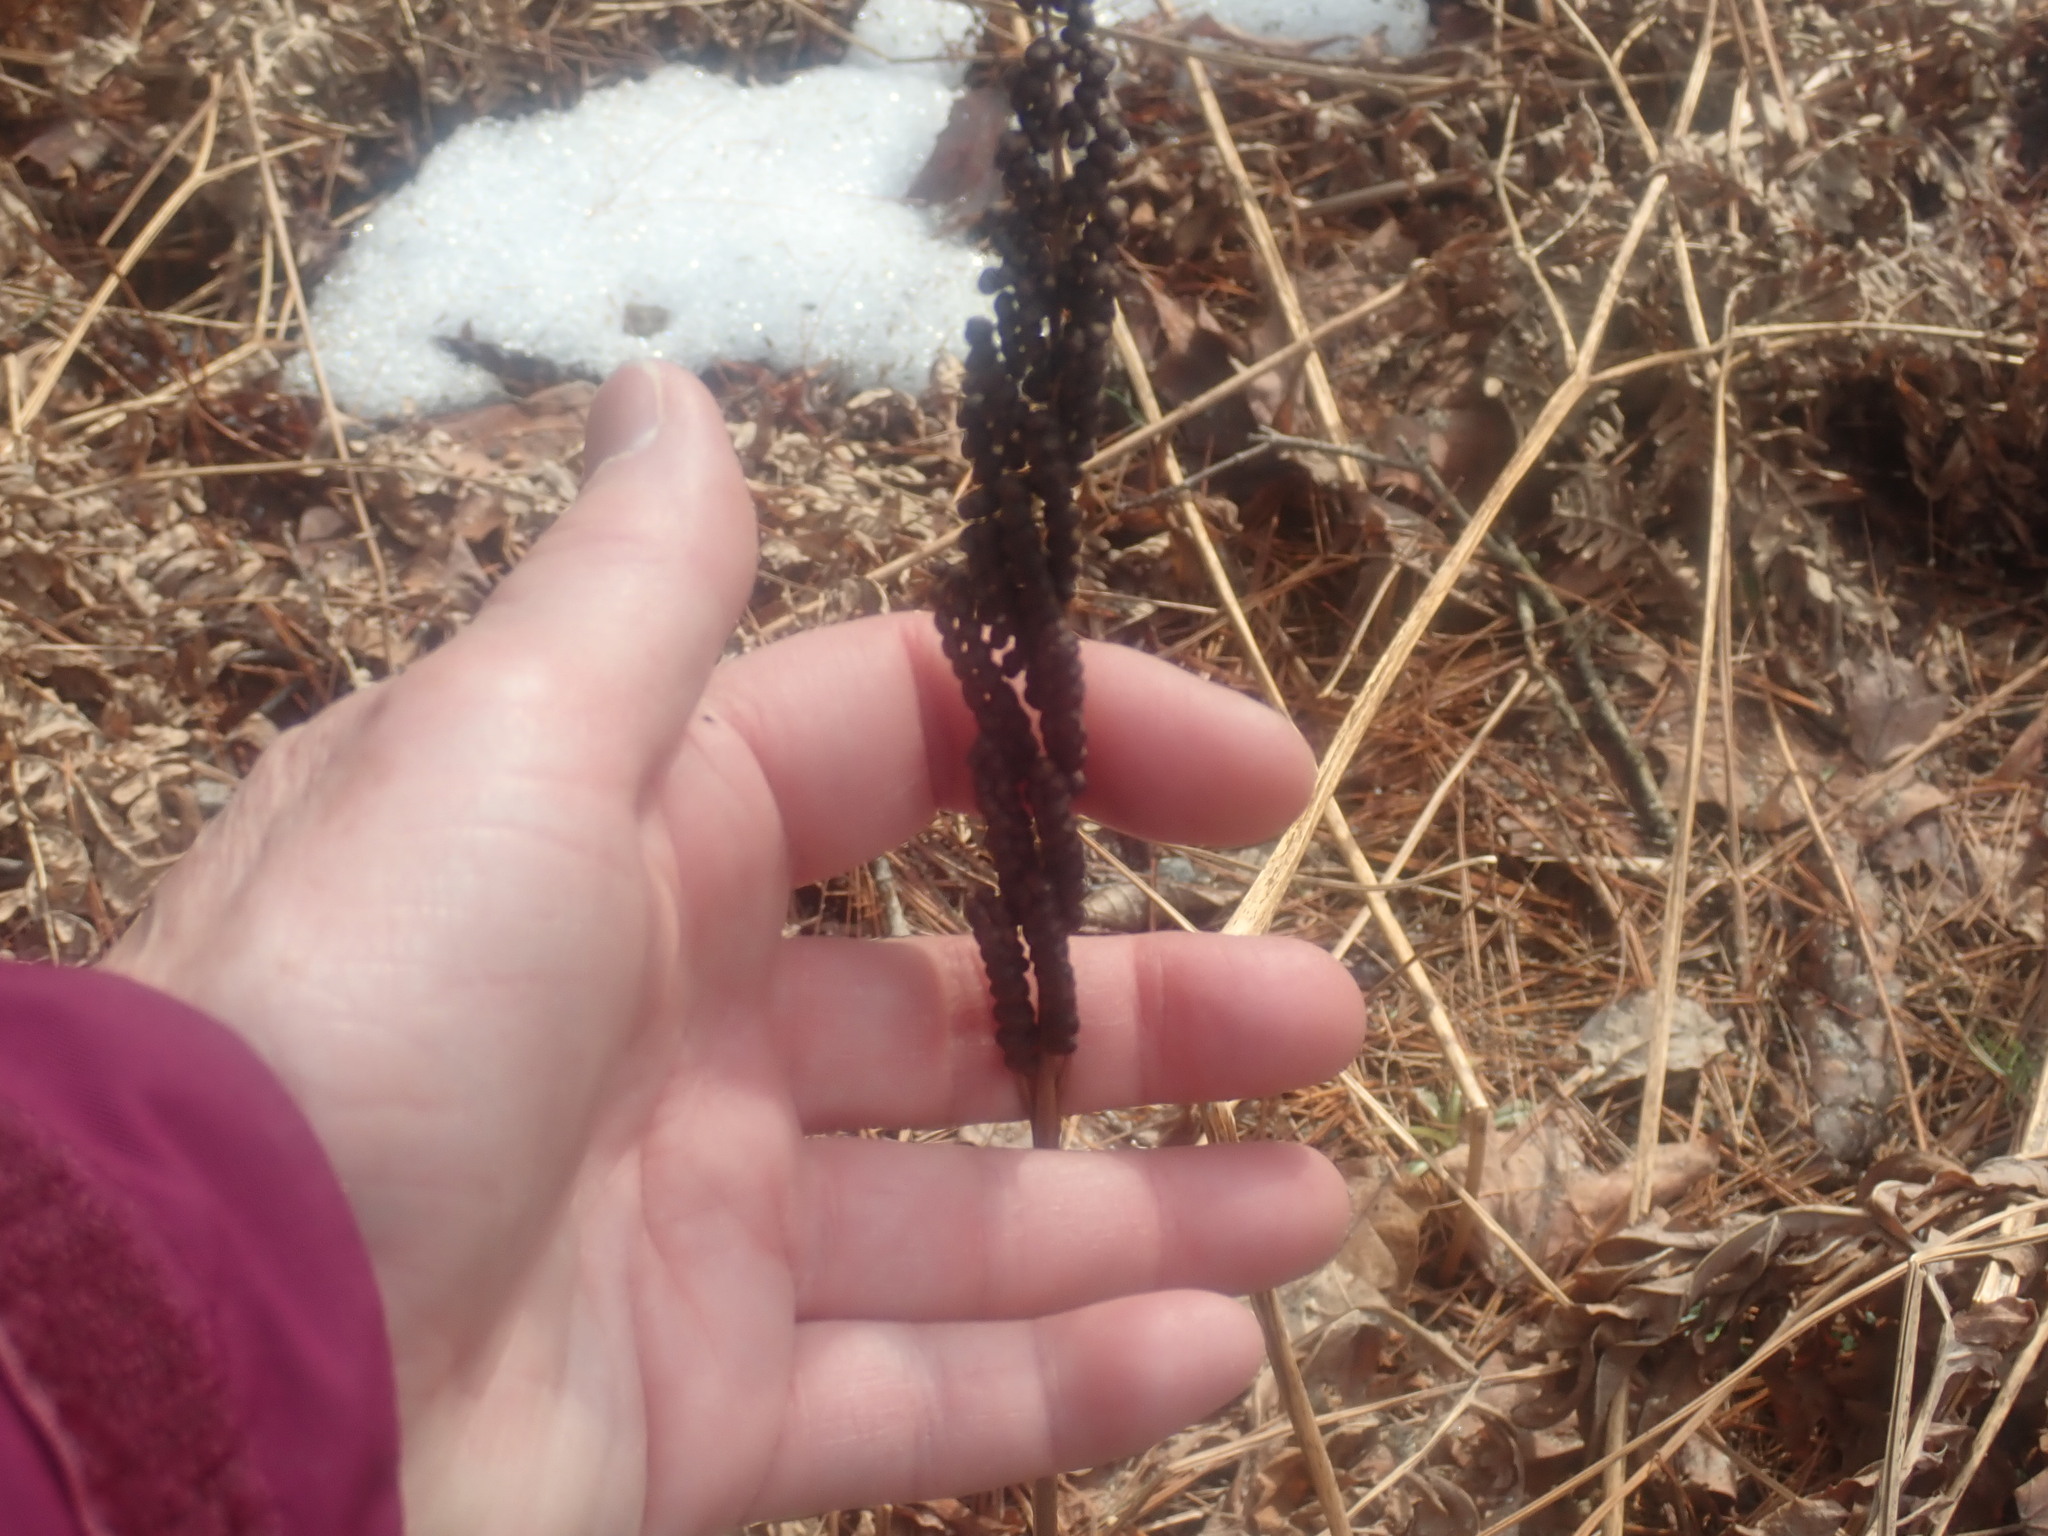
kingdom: Plantae
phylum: Tracheophyta
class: Polypodiopsida
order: Polypodiales
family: Onocleaceae
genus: Onoclea
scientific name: Onoclea sensibilis
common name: Sensitive fern
